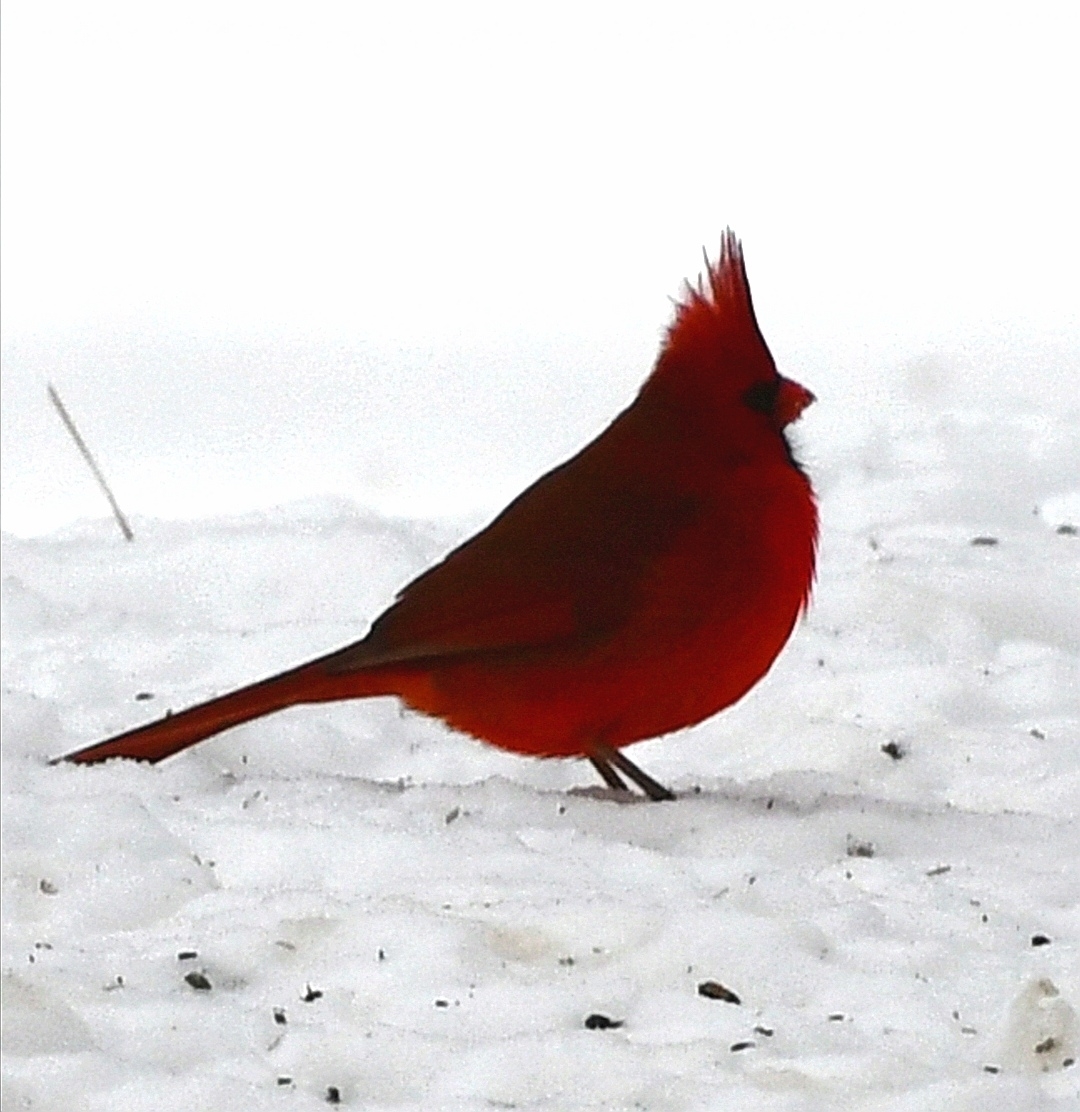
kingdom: Animalia
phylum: Chordata
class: Aves
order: Passeriformes
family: Cardinalidae
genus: Cardinalis
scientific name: Cardinalis cardinalis
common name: Northern cardinal
